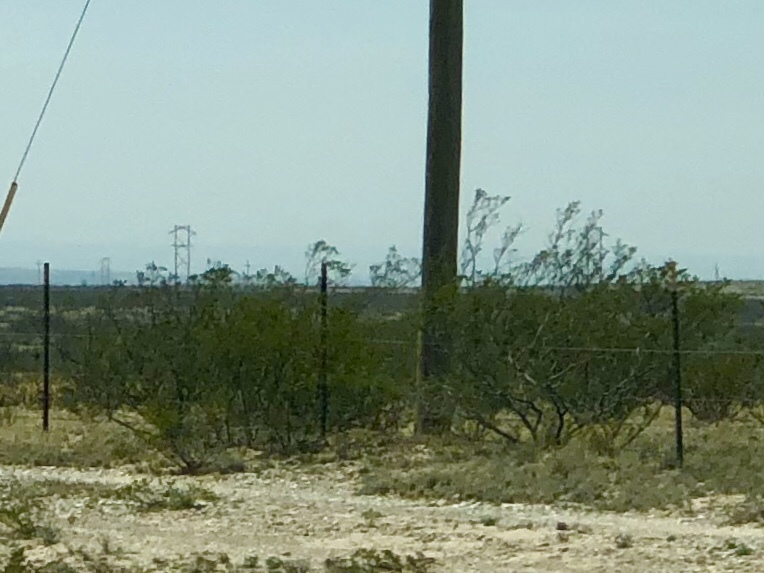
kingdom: Plantae
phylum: Tracheophyta
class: Magnoliopsida
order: Zygophyllales
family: Zygophyllaceae
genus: Larrea
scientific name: Larrea tridentata
